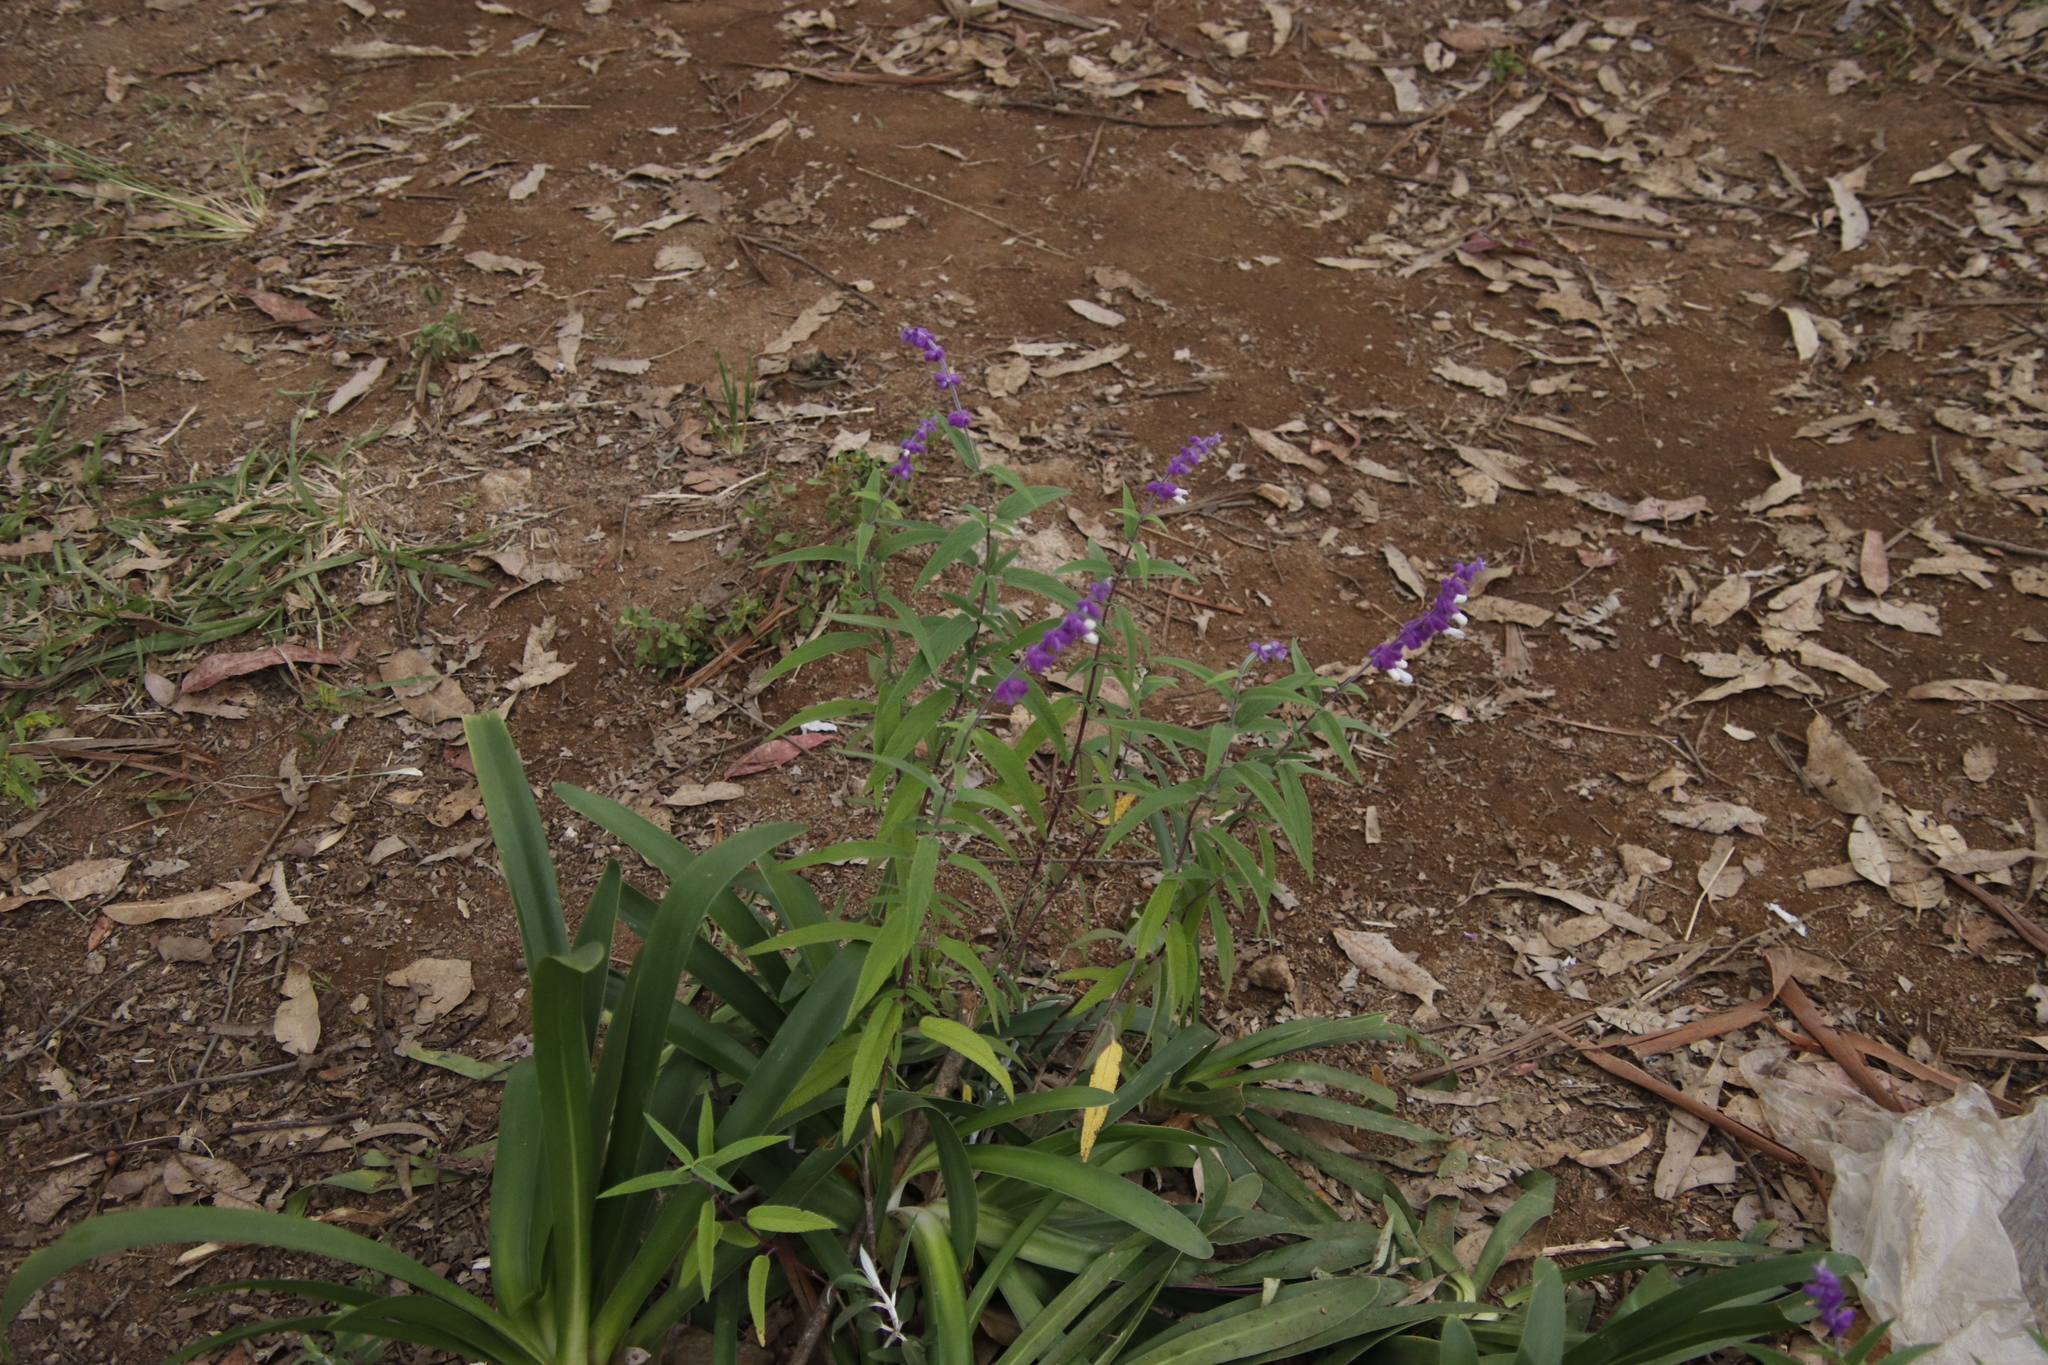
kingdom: Plantae
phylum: Tracheophyta
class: Magnoliopsida
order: Lamiales
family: Lamiaceae
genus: Salvia
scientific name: Salvia leucantha
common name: Mexican bush sage
